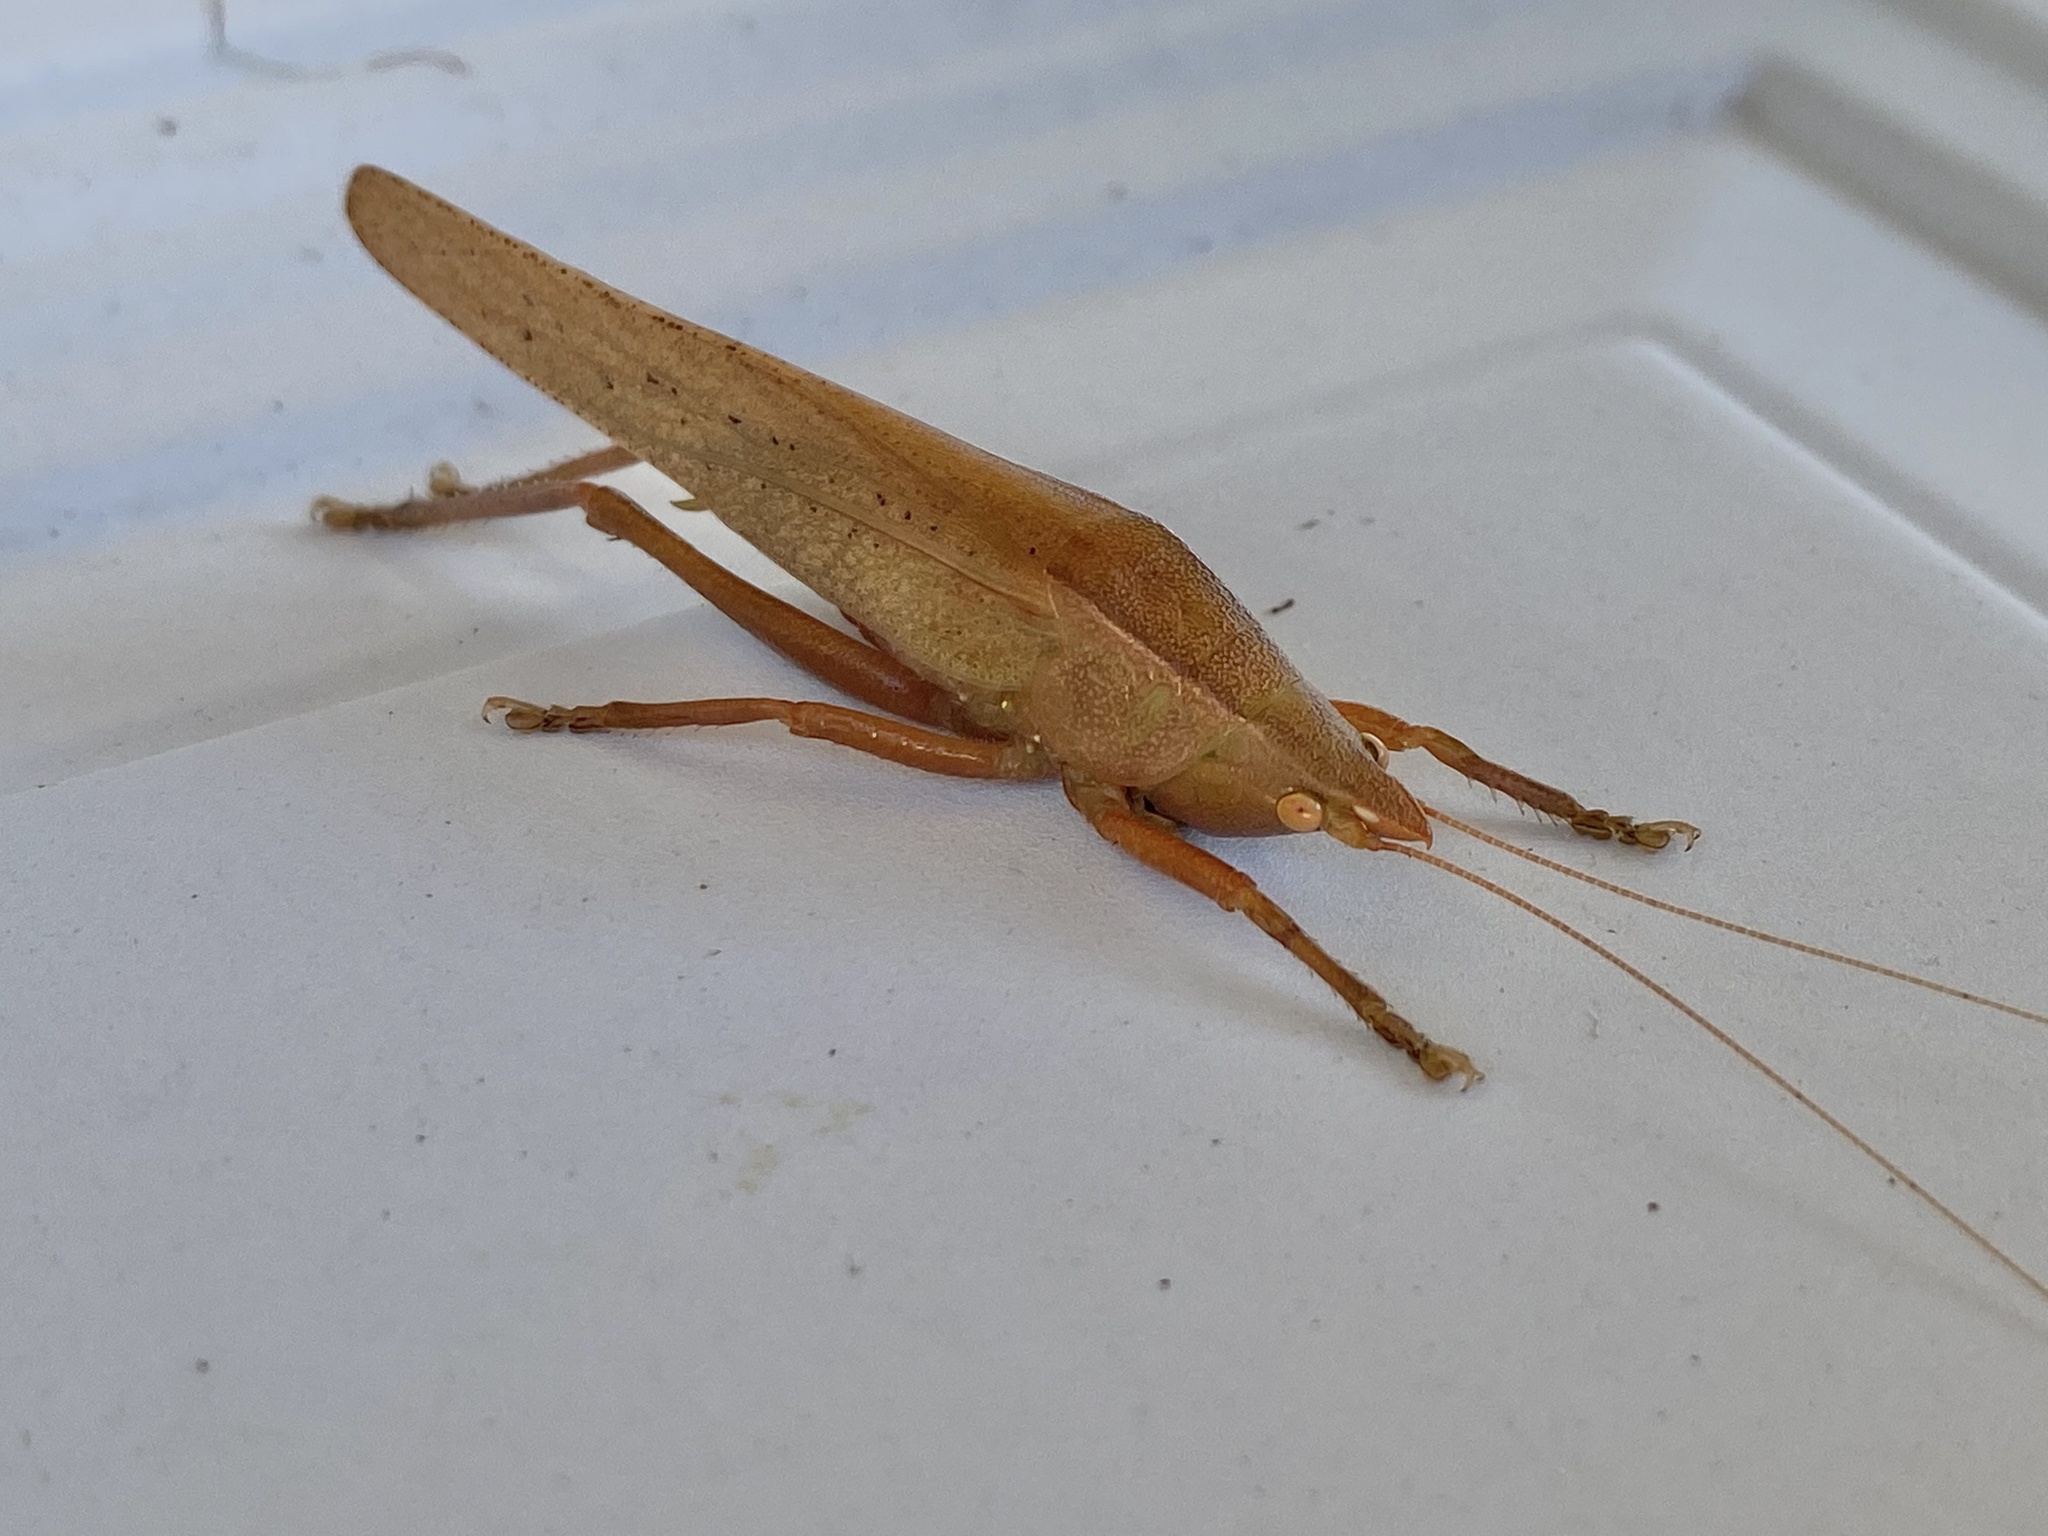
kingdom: Animalia
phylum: Arthropoda
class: Insecta
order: Orthoptera
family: Tettigoniidae
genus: Pyrgocorypha
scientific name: Pyrgocorypha uncinata
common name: Hook-faced conehead
